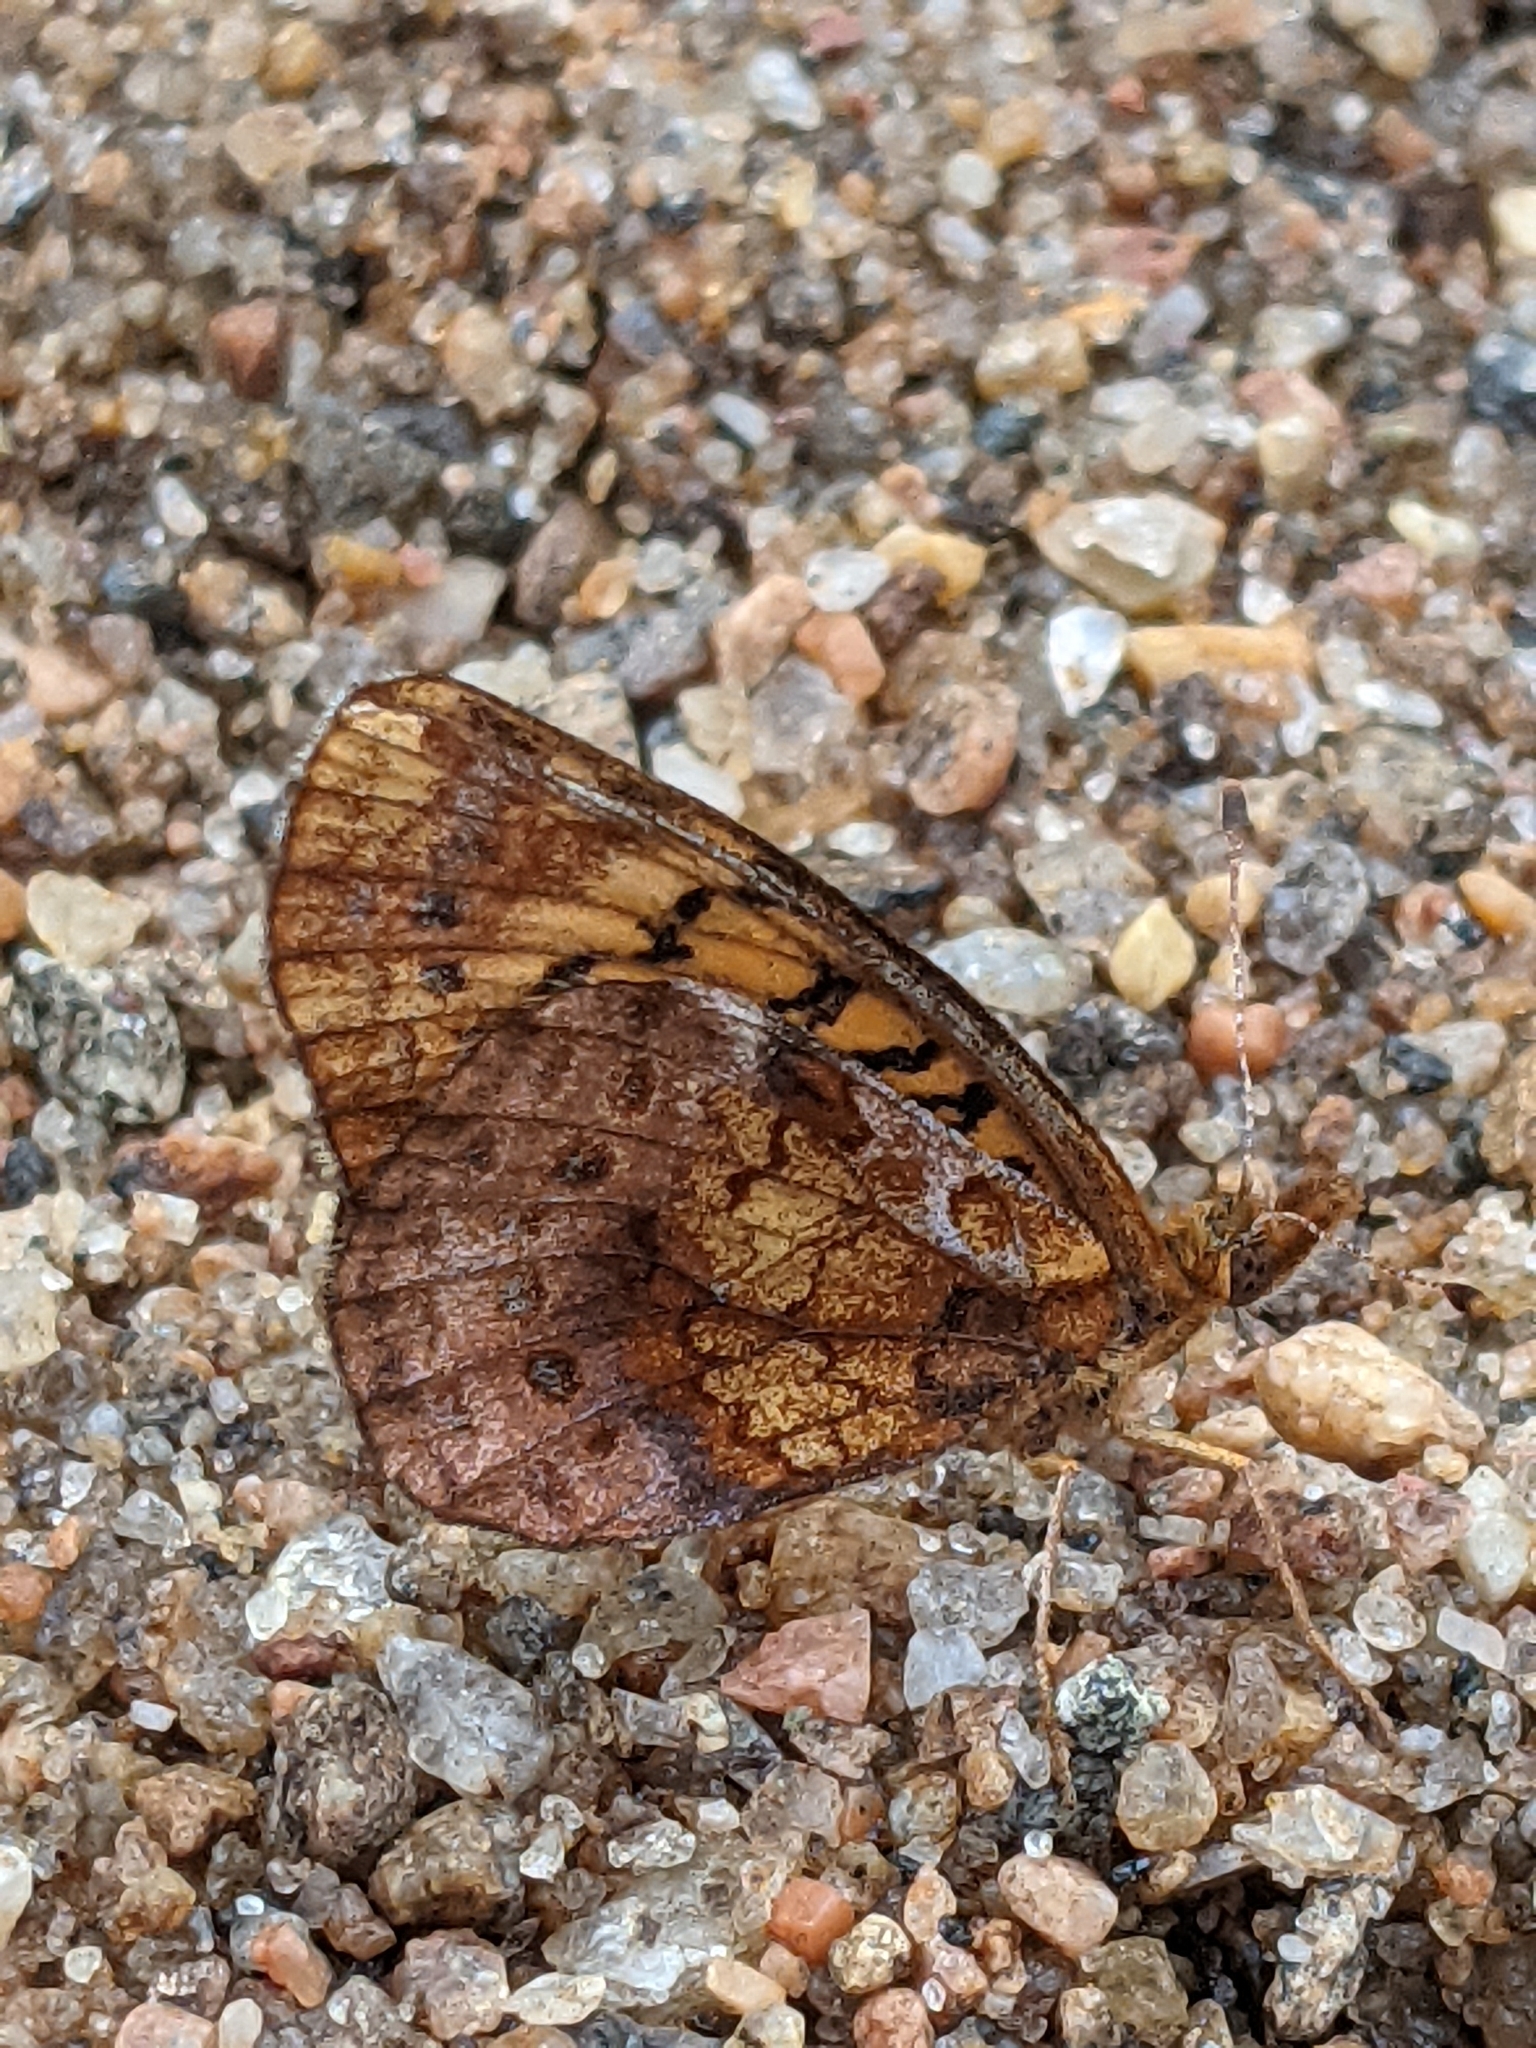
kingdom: Animalia
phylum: Arthropoda
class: Insecta
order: Lepidoptera
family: Nymphalidae
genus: Clossiana
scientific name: Clossiana toddi
